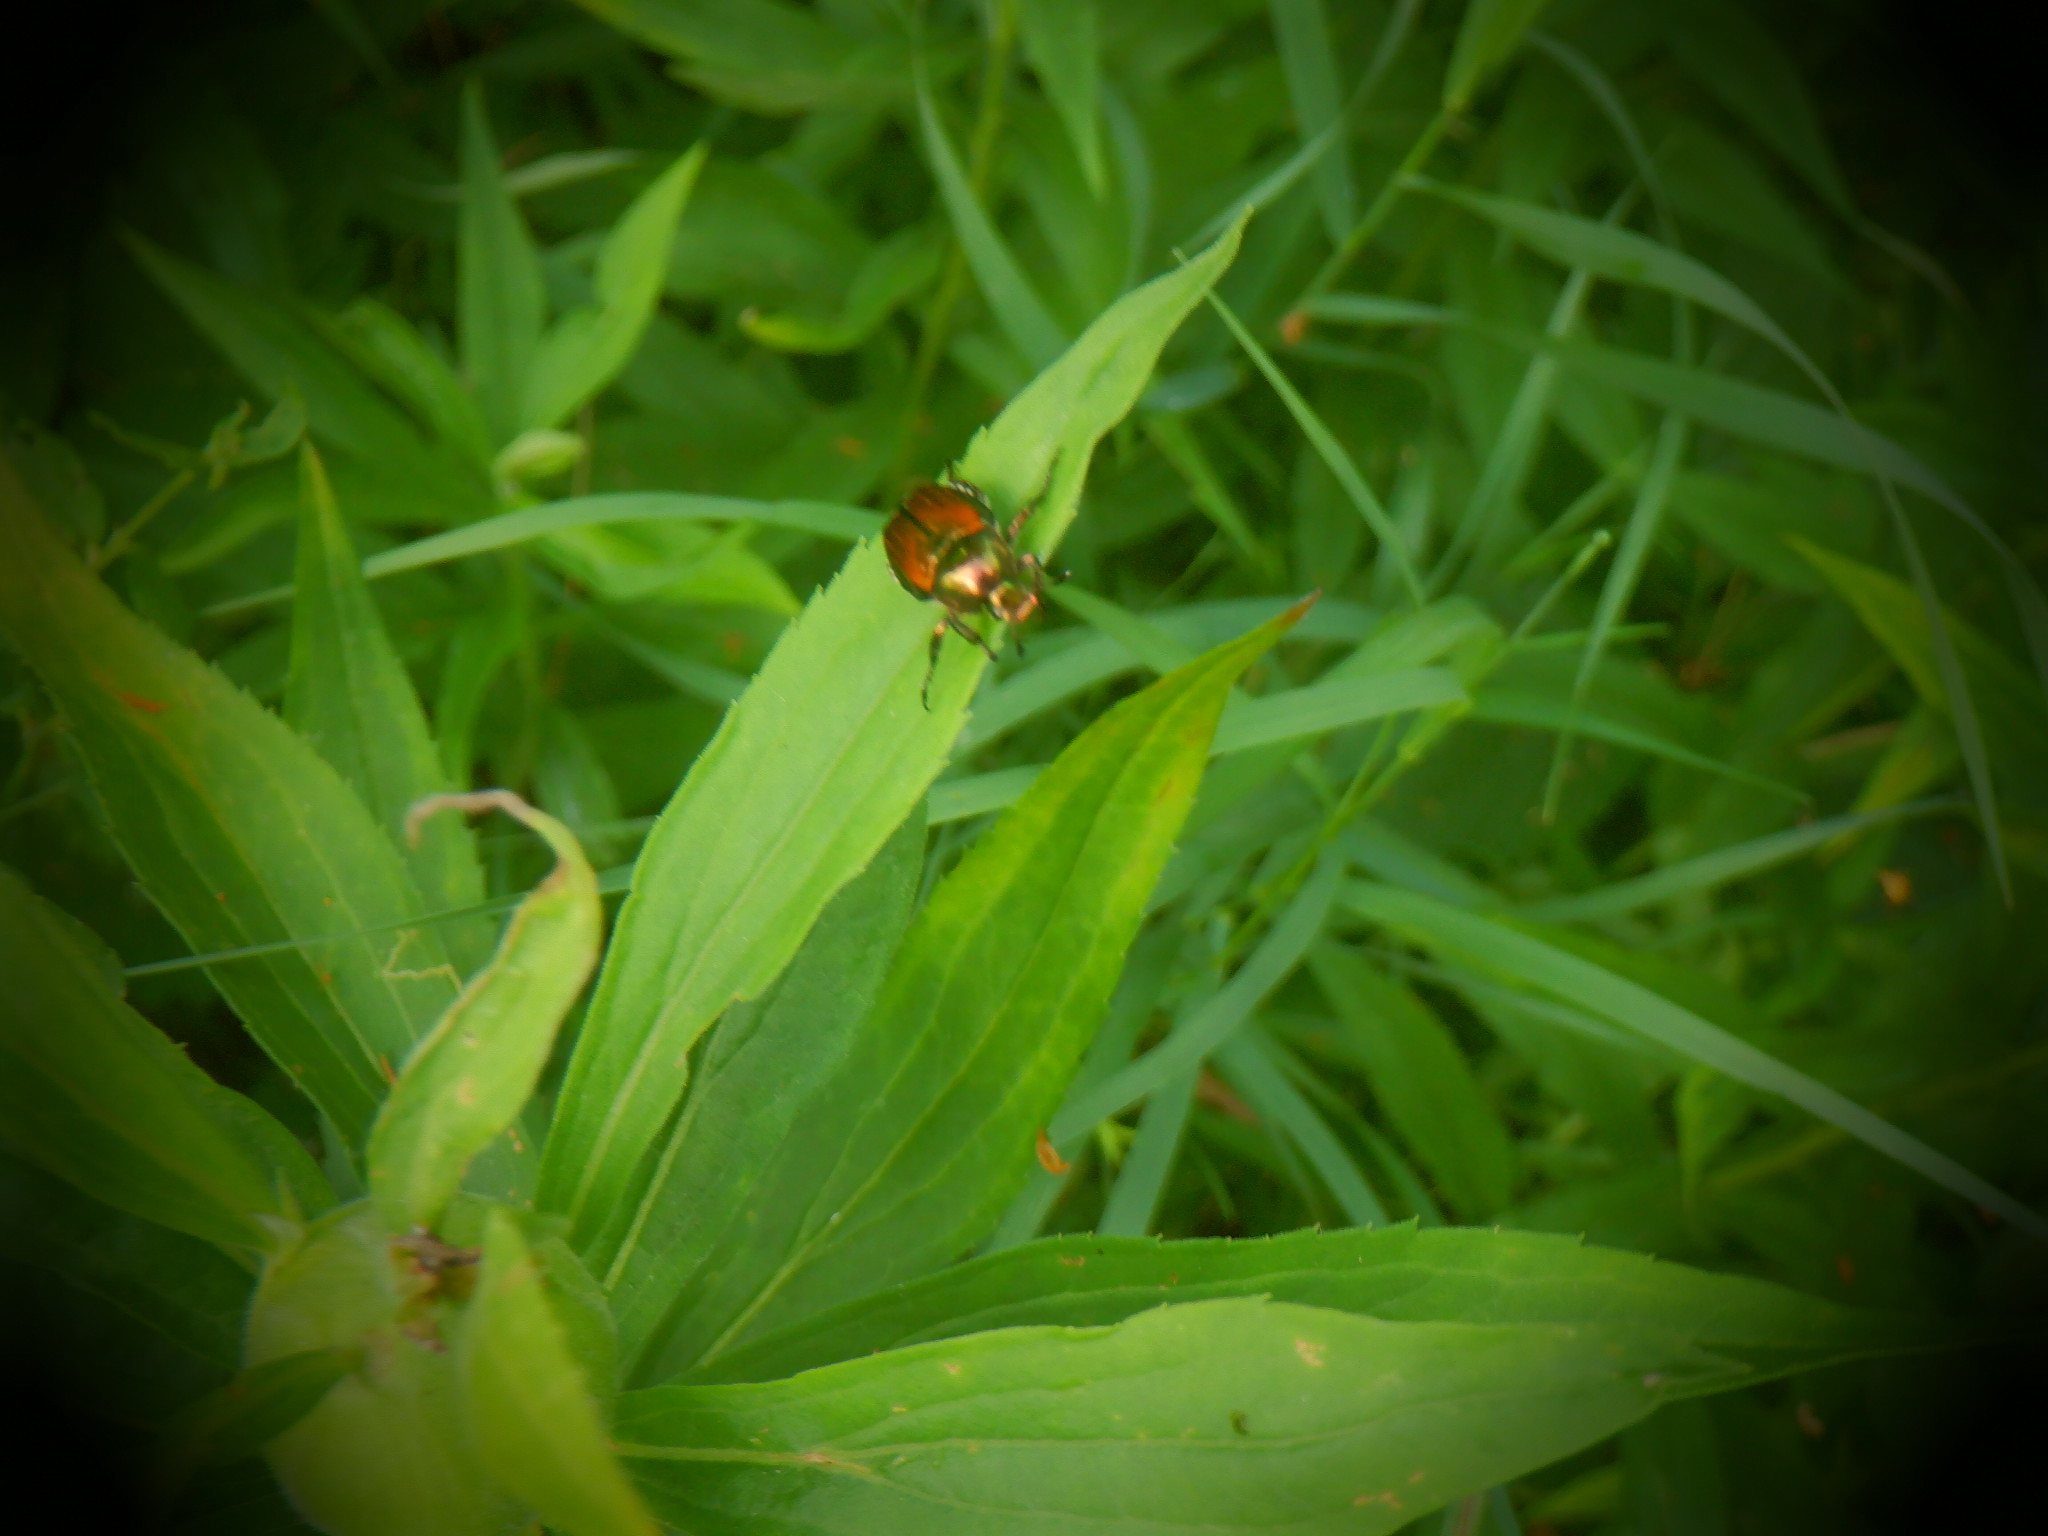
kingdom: Animalia
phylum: Arthropoda
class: Insecta
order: Coleoptera
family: Scarabaeidae
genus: Popillia
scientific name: Popillia japonica
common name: Japanese beetle
